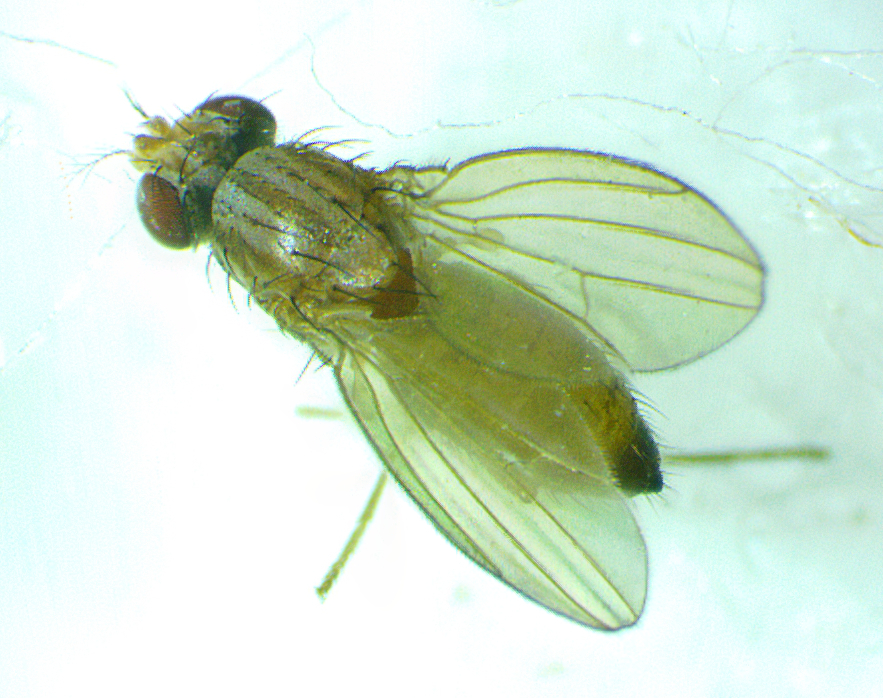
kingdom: Animalia
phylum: Arthropoda
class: Insecta
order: Diptera
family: Drosophilidae
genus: Scaptomyza
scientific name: Scaptomyza pallida
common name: Pomace fly
